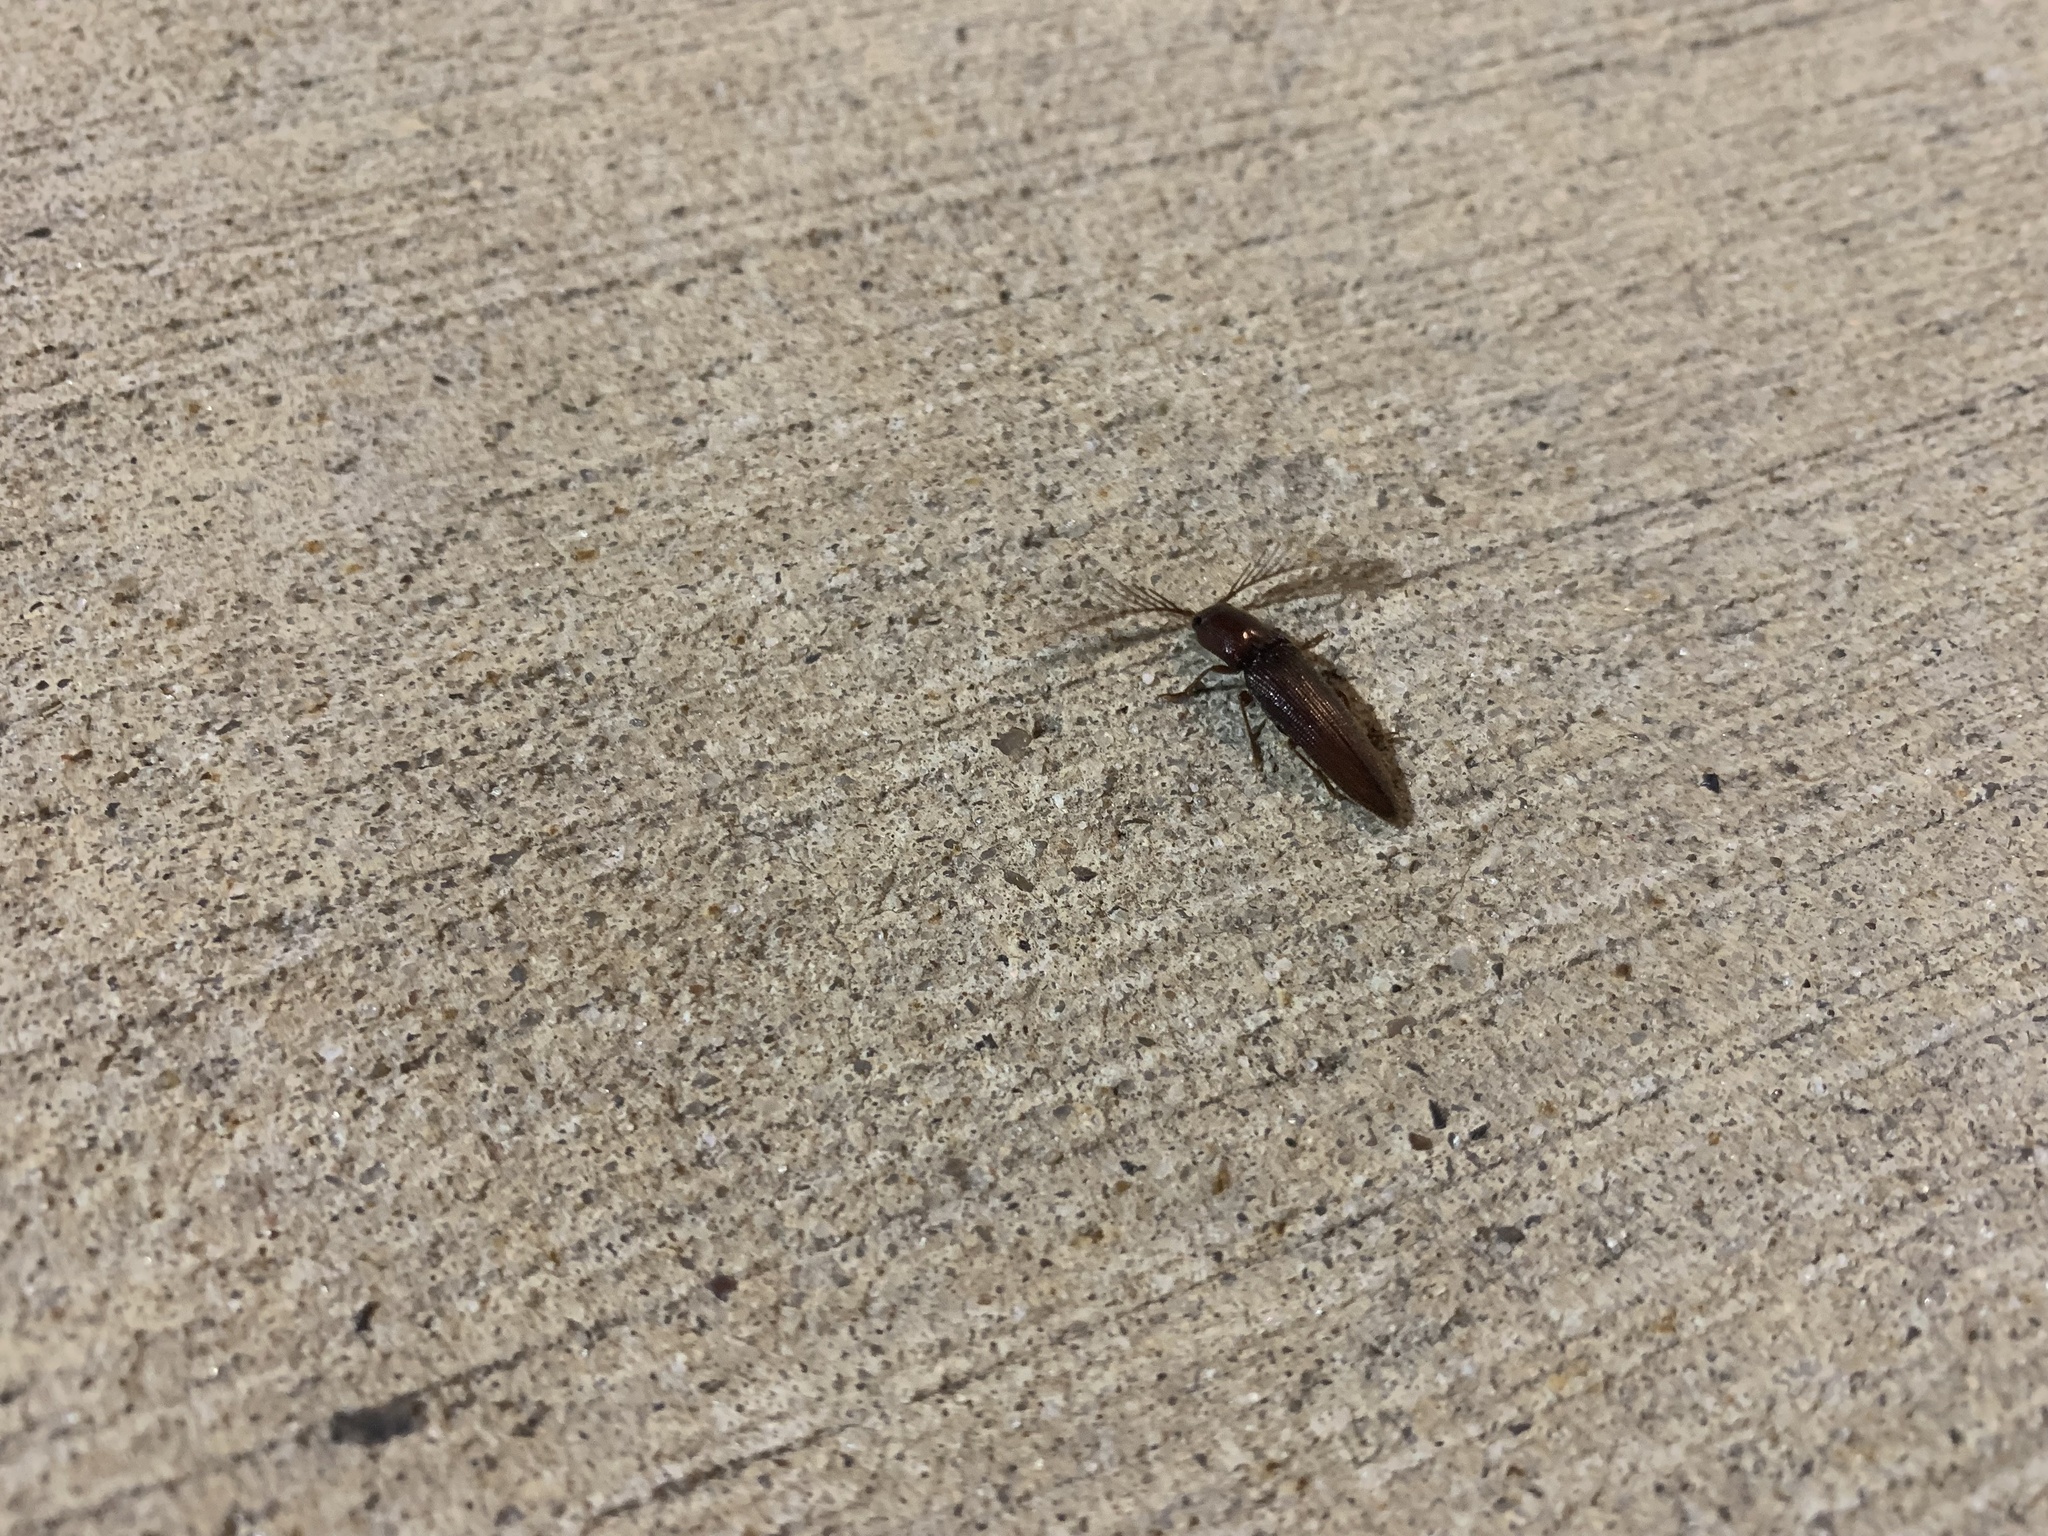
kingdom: Animalia
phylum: Arthropoda
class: Insecta
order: Coleoptera
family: Elateridae
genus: Dicrepidius
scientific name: Dicrepidius palmatus
